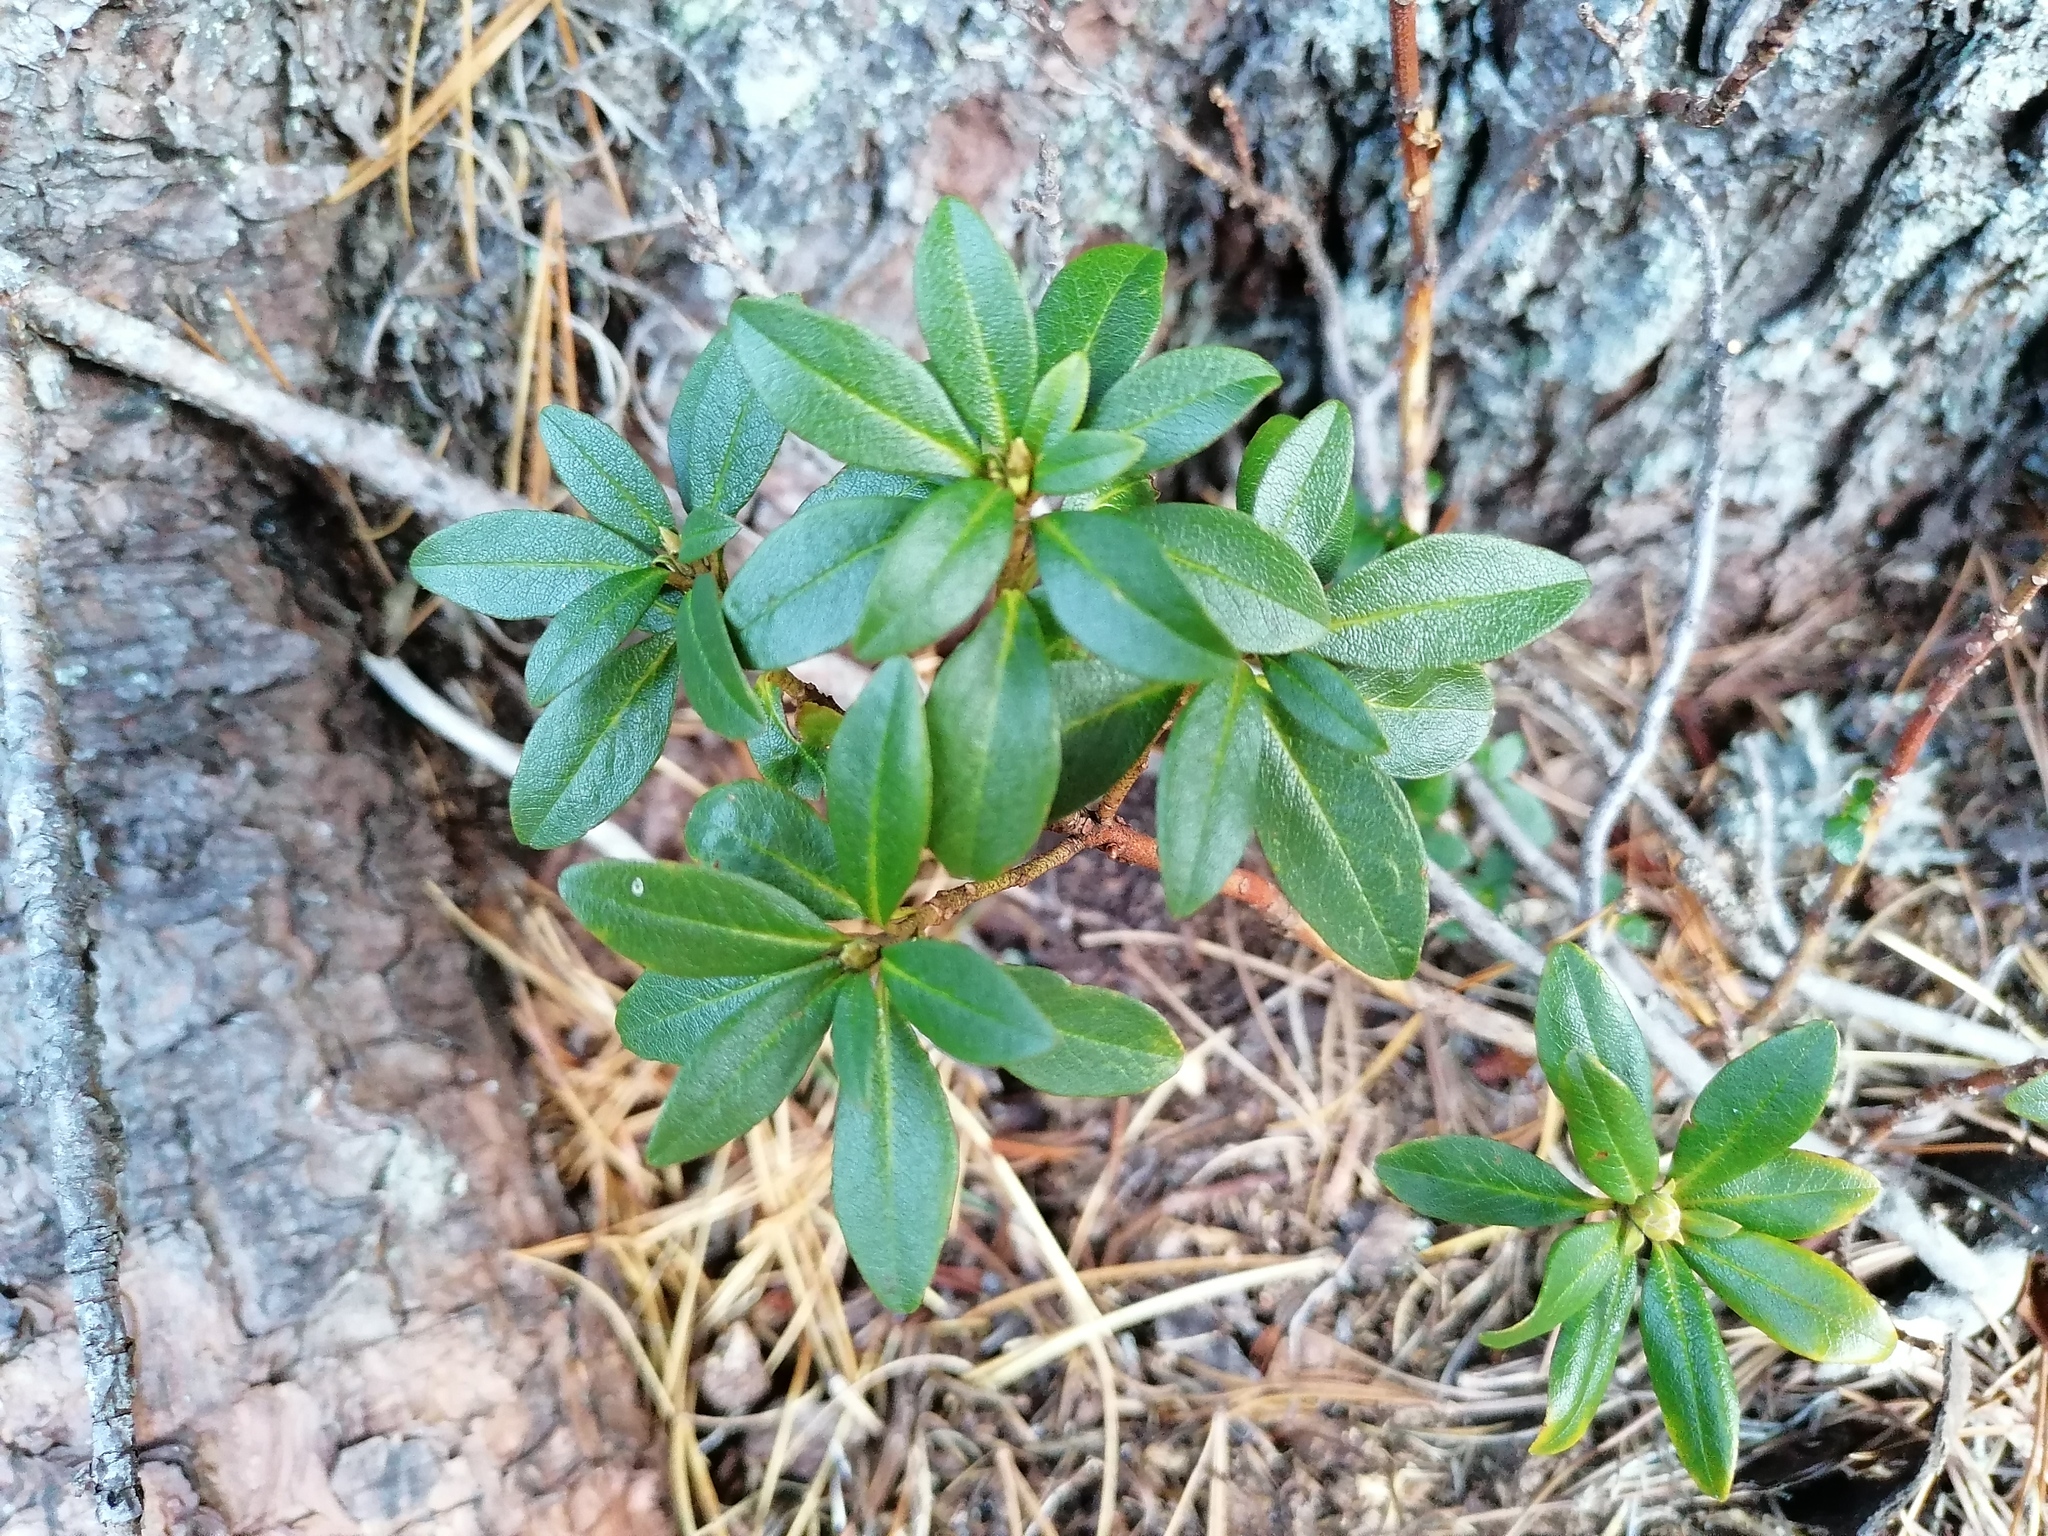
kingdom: Plantae
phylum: Tracheophyta
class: Magnoliopsida
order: Ericales
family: Ericaceae
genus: Rhododendron
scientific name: Rhododendron ferrugineum
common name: Alpenrose
